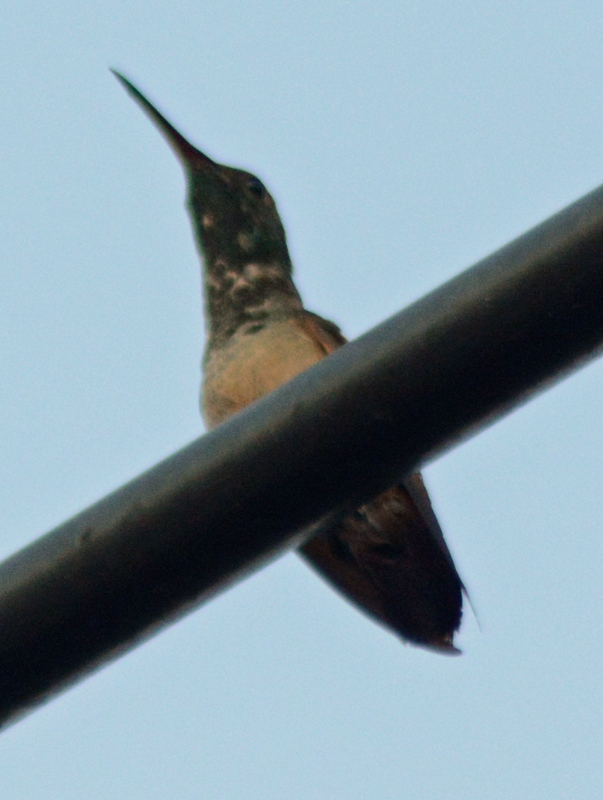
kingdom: Animalia
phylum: Chordata
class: Aves
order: Apodiformes
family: Trochilidae
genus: Saucerottia
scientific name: Saucerottia beryllina
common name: Berylline hummingbird
